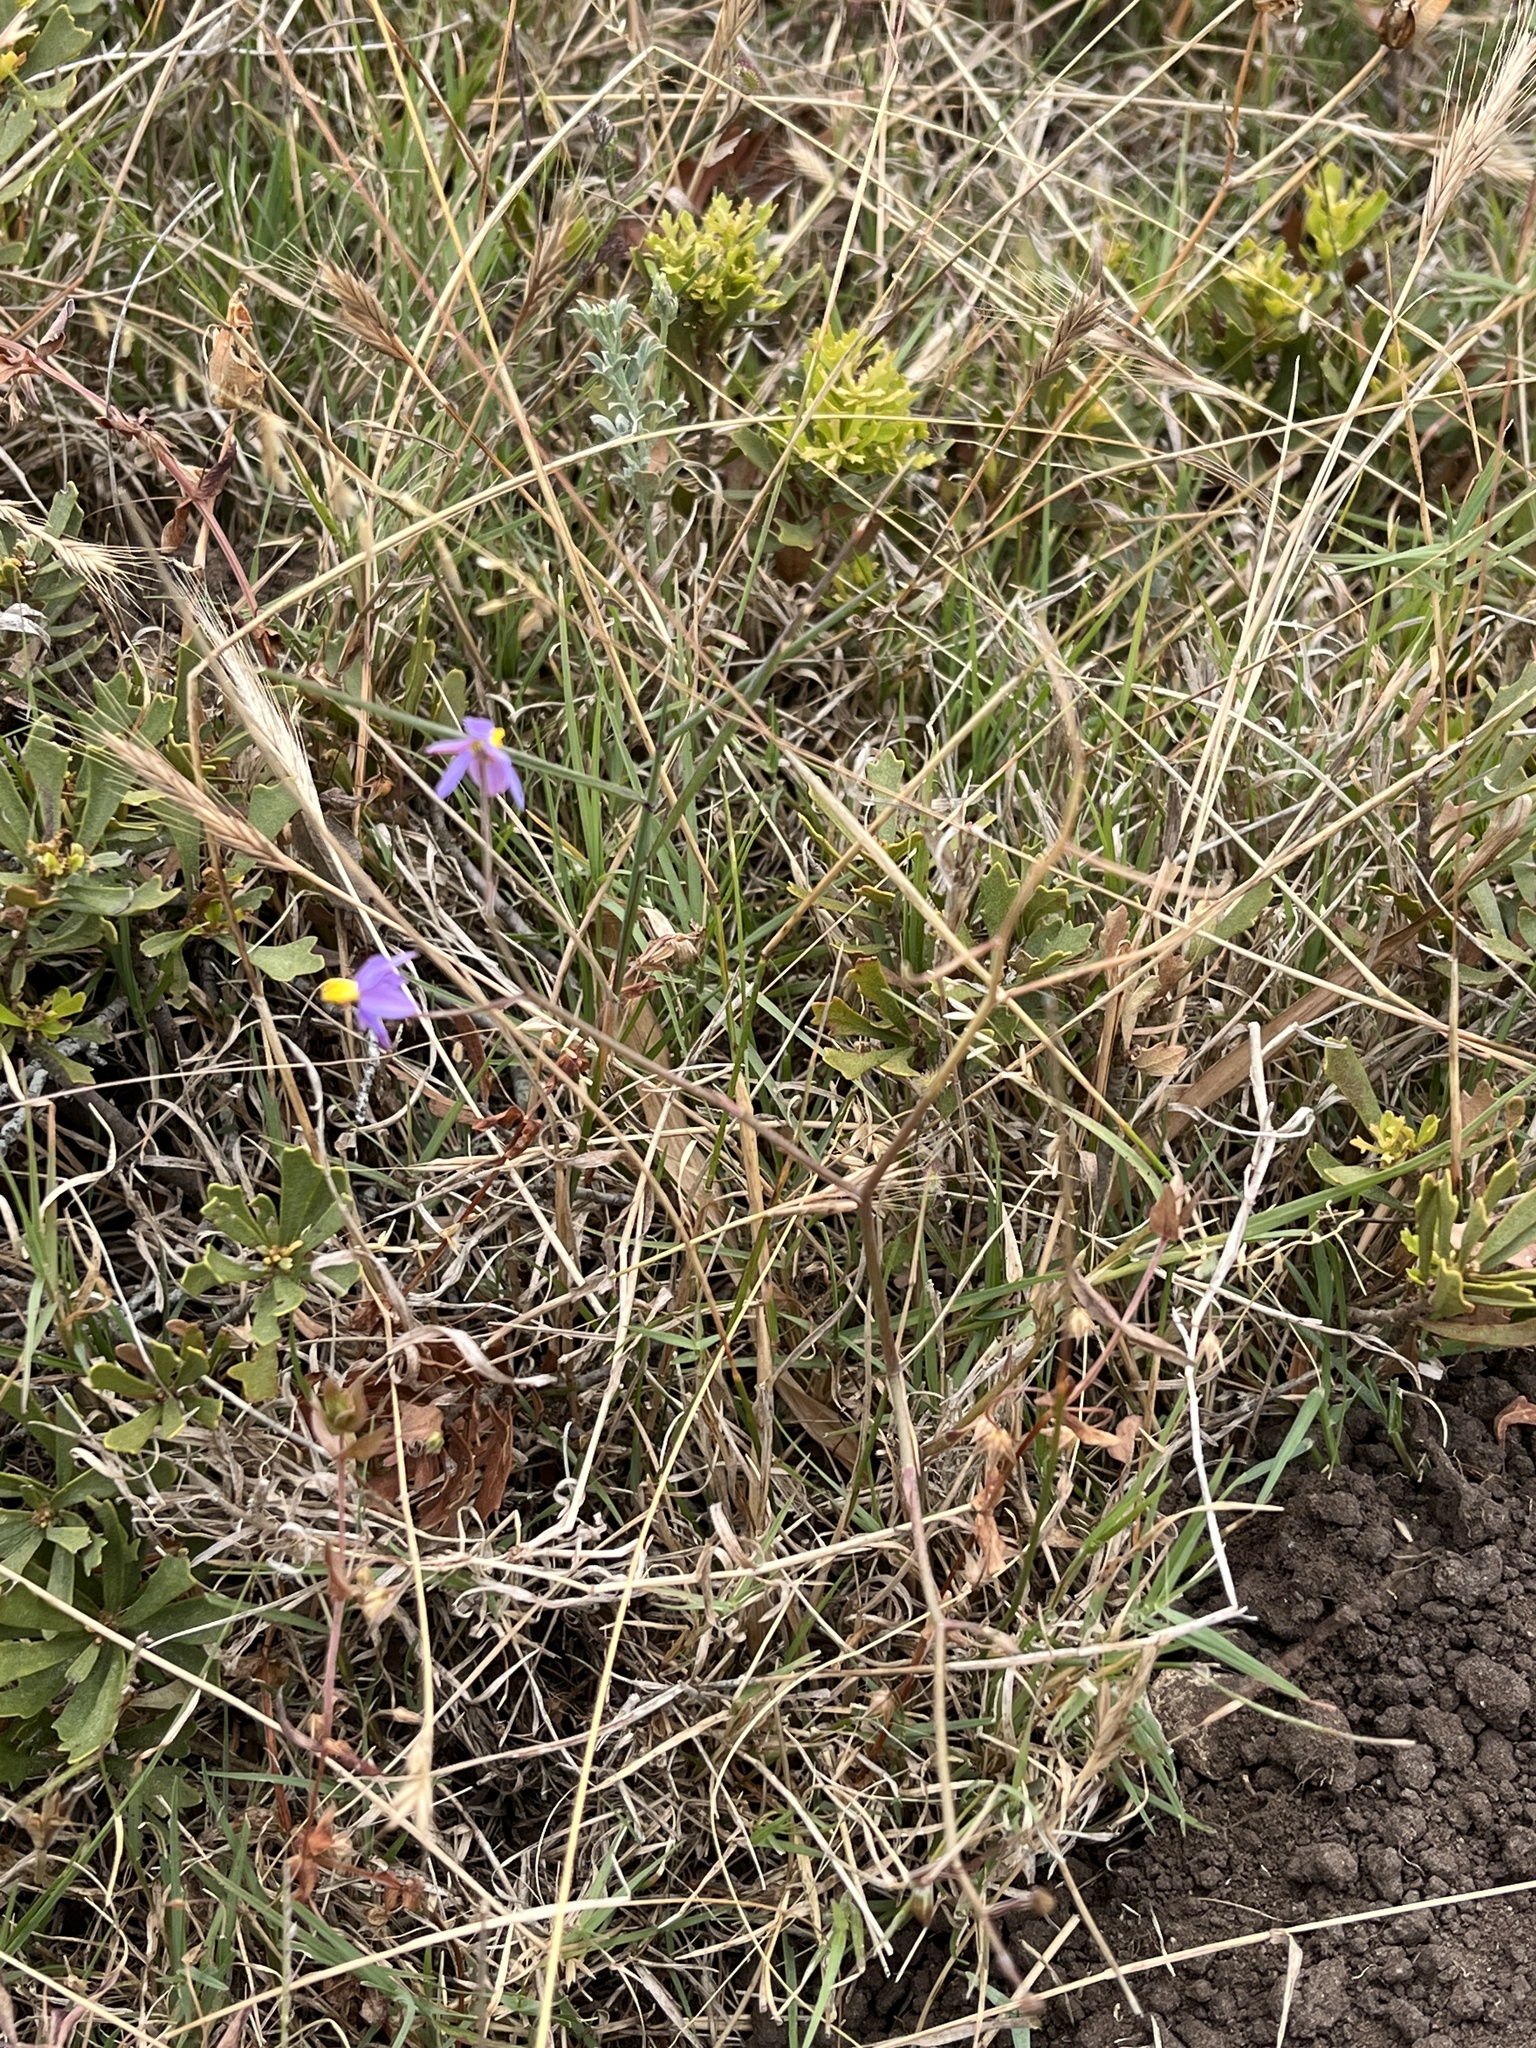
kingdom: Plantae
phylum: Tracheophyta
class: Liliopsida
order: Asparagales
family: Tecophilaeaceae
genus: Cyanella
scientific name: Cyanella hyacinthoides
